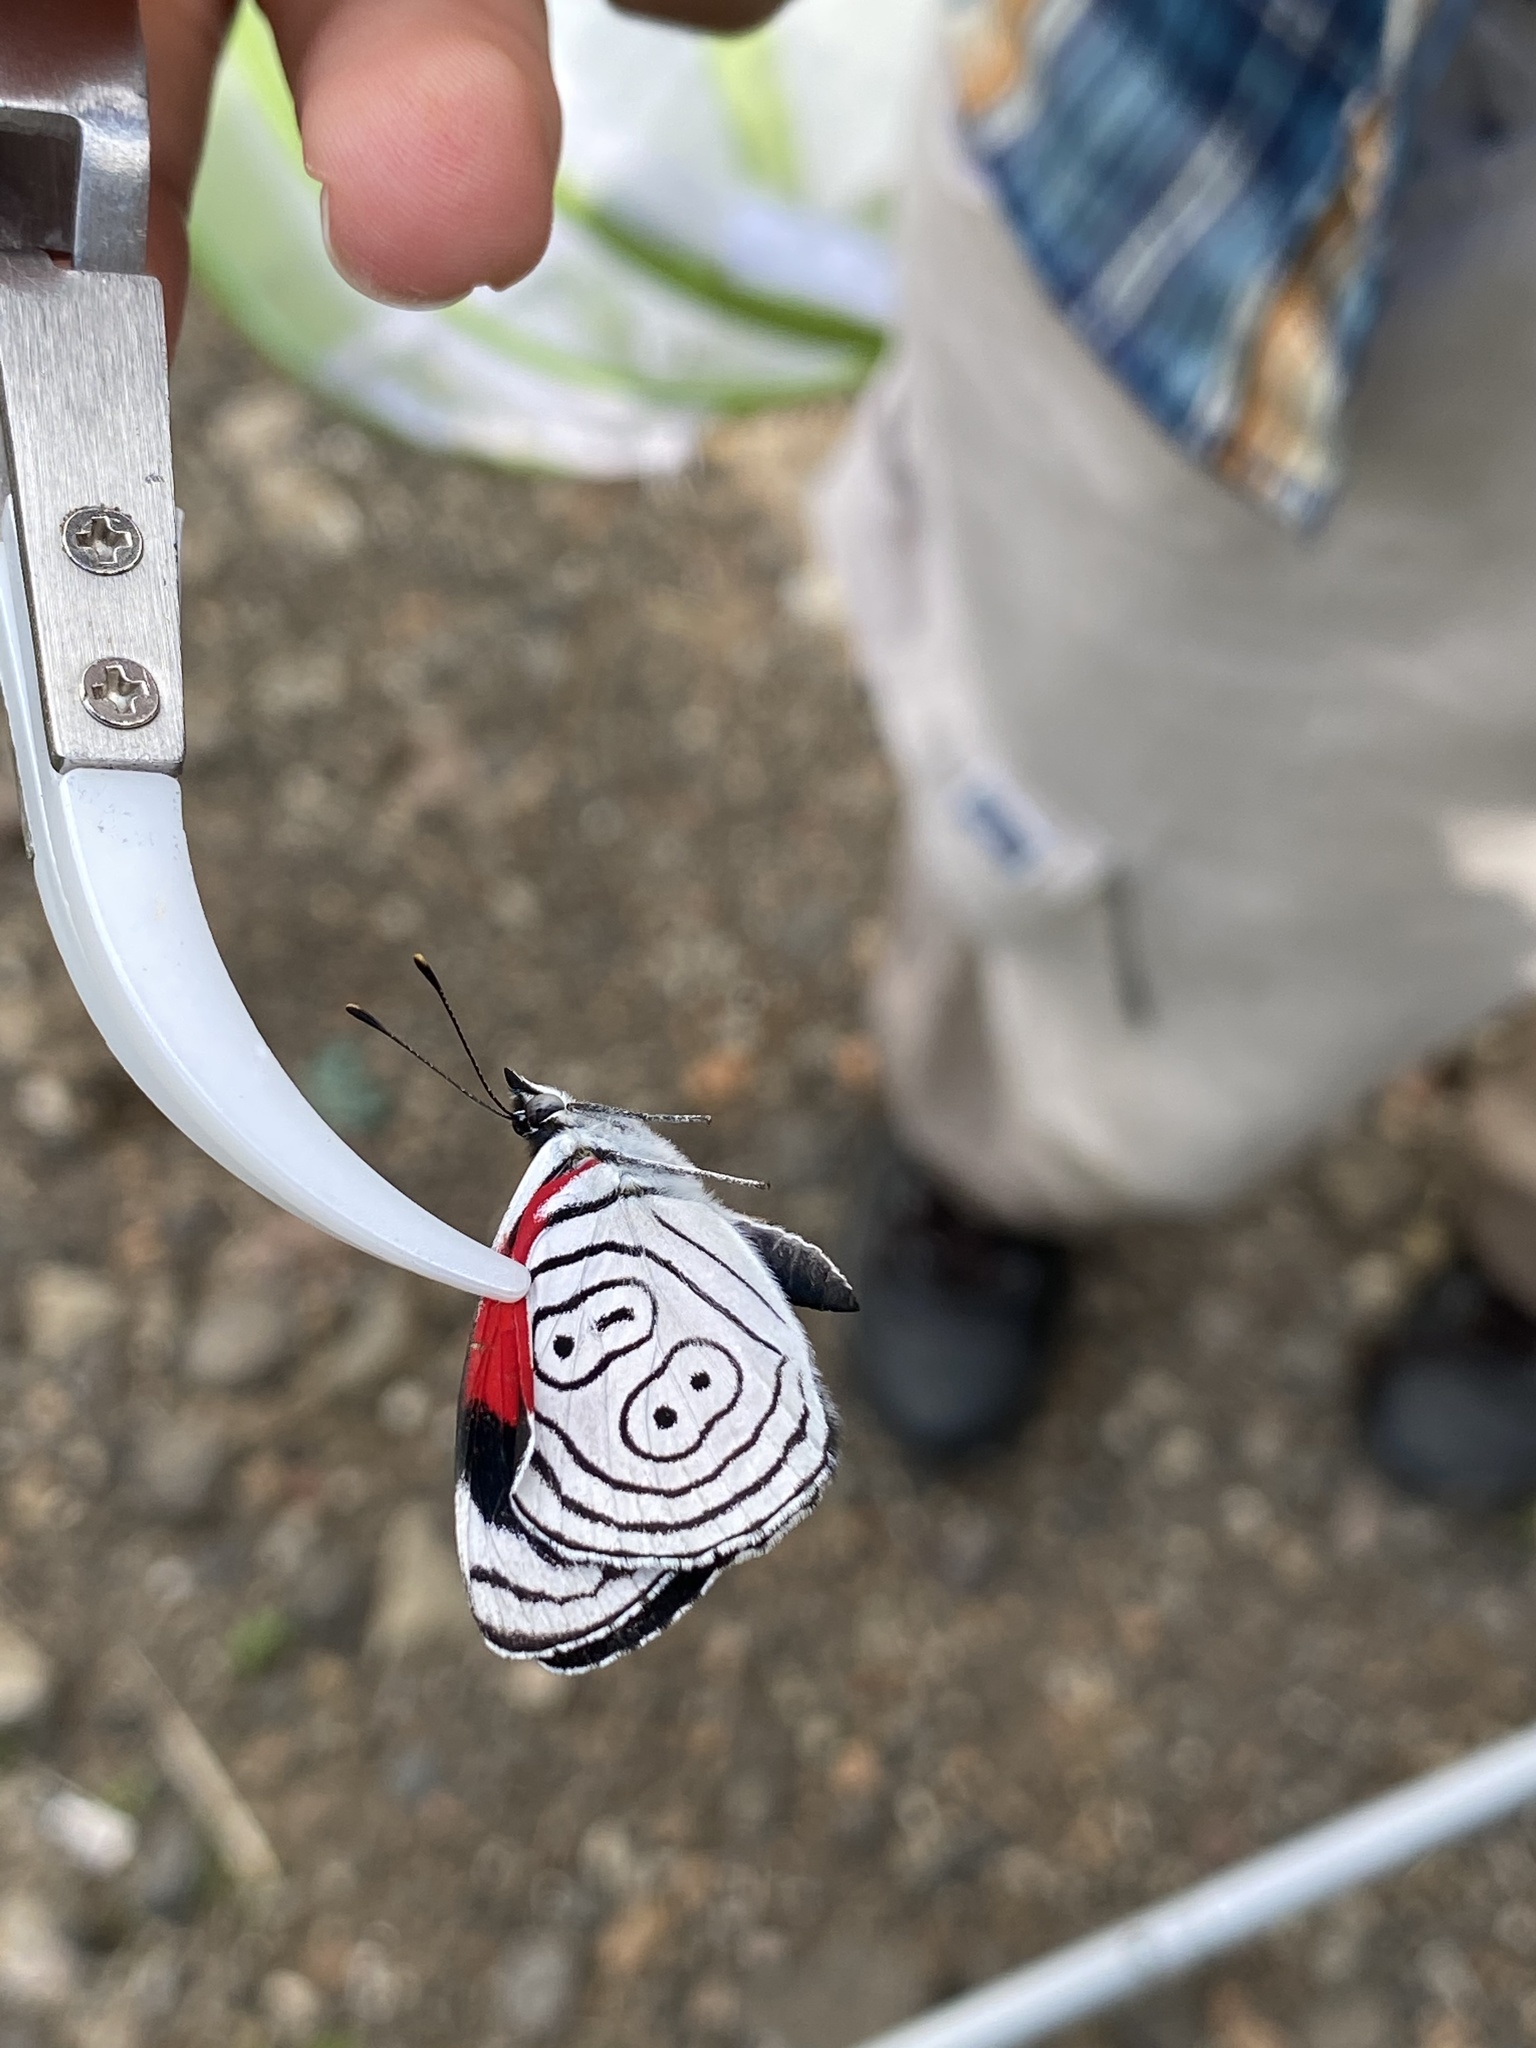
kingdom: Animalia
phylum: Arthropoda
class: Insecta
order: Lepidoptera
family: Nymphalidae
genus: Diaethria
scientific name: Diaethria anna
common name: Anna’s eighty-eight
